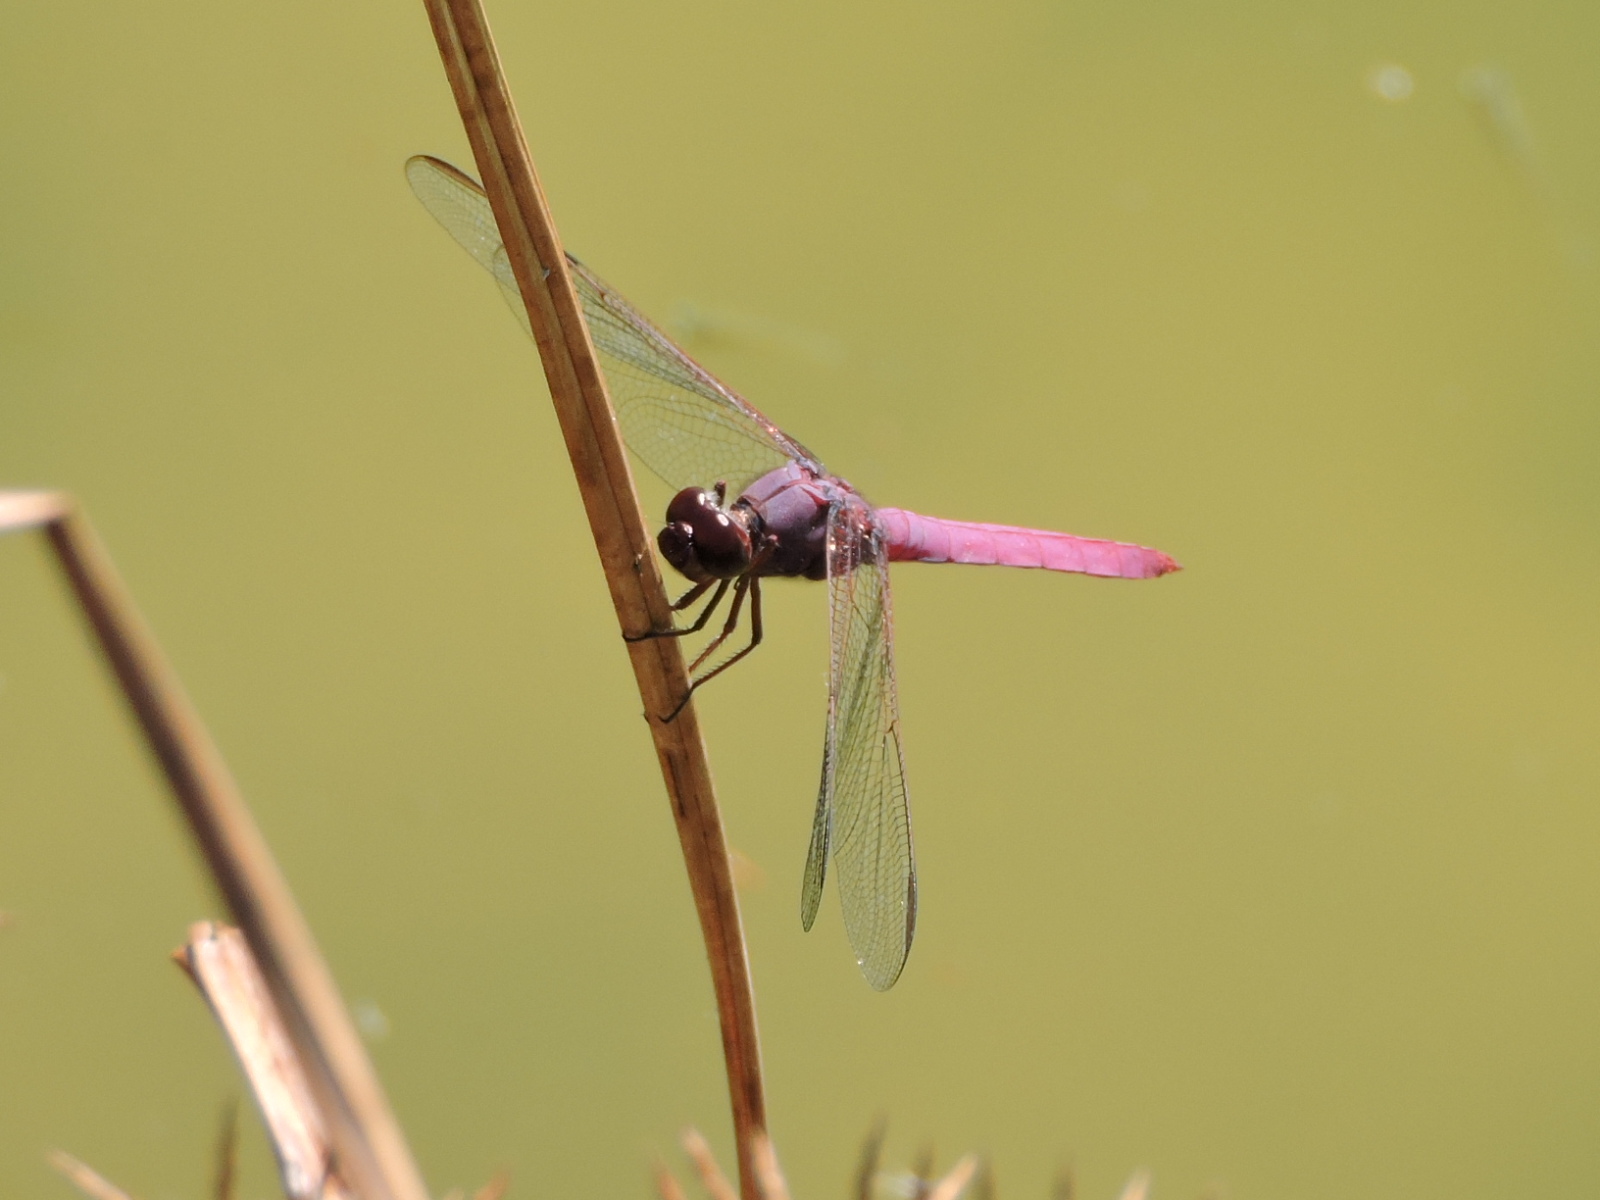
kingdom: Animalia
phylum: Arthropoda
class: Insecta
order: Odonata
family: Libellulidae
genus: Orthemis
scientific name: Orthemis ferruginea
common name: Roseate skimmer
